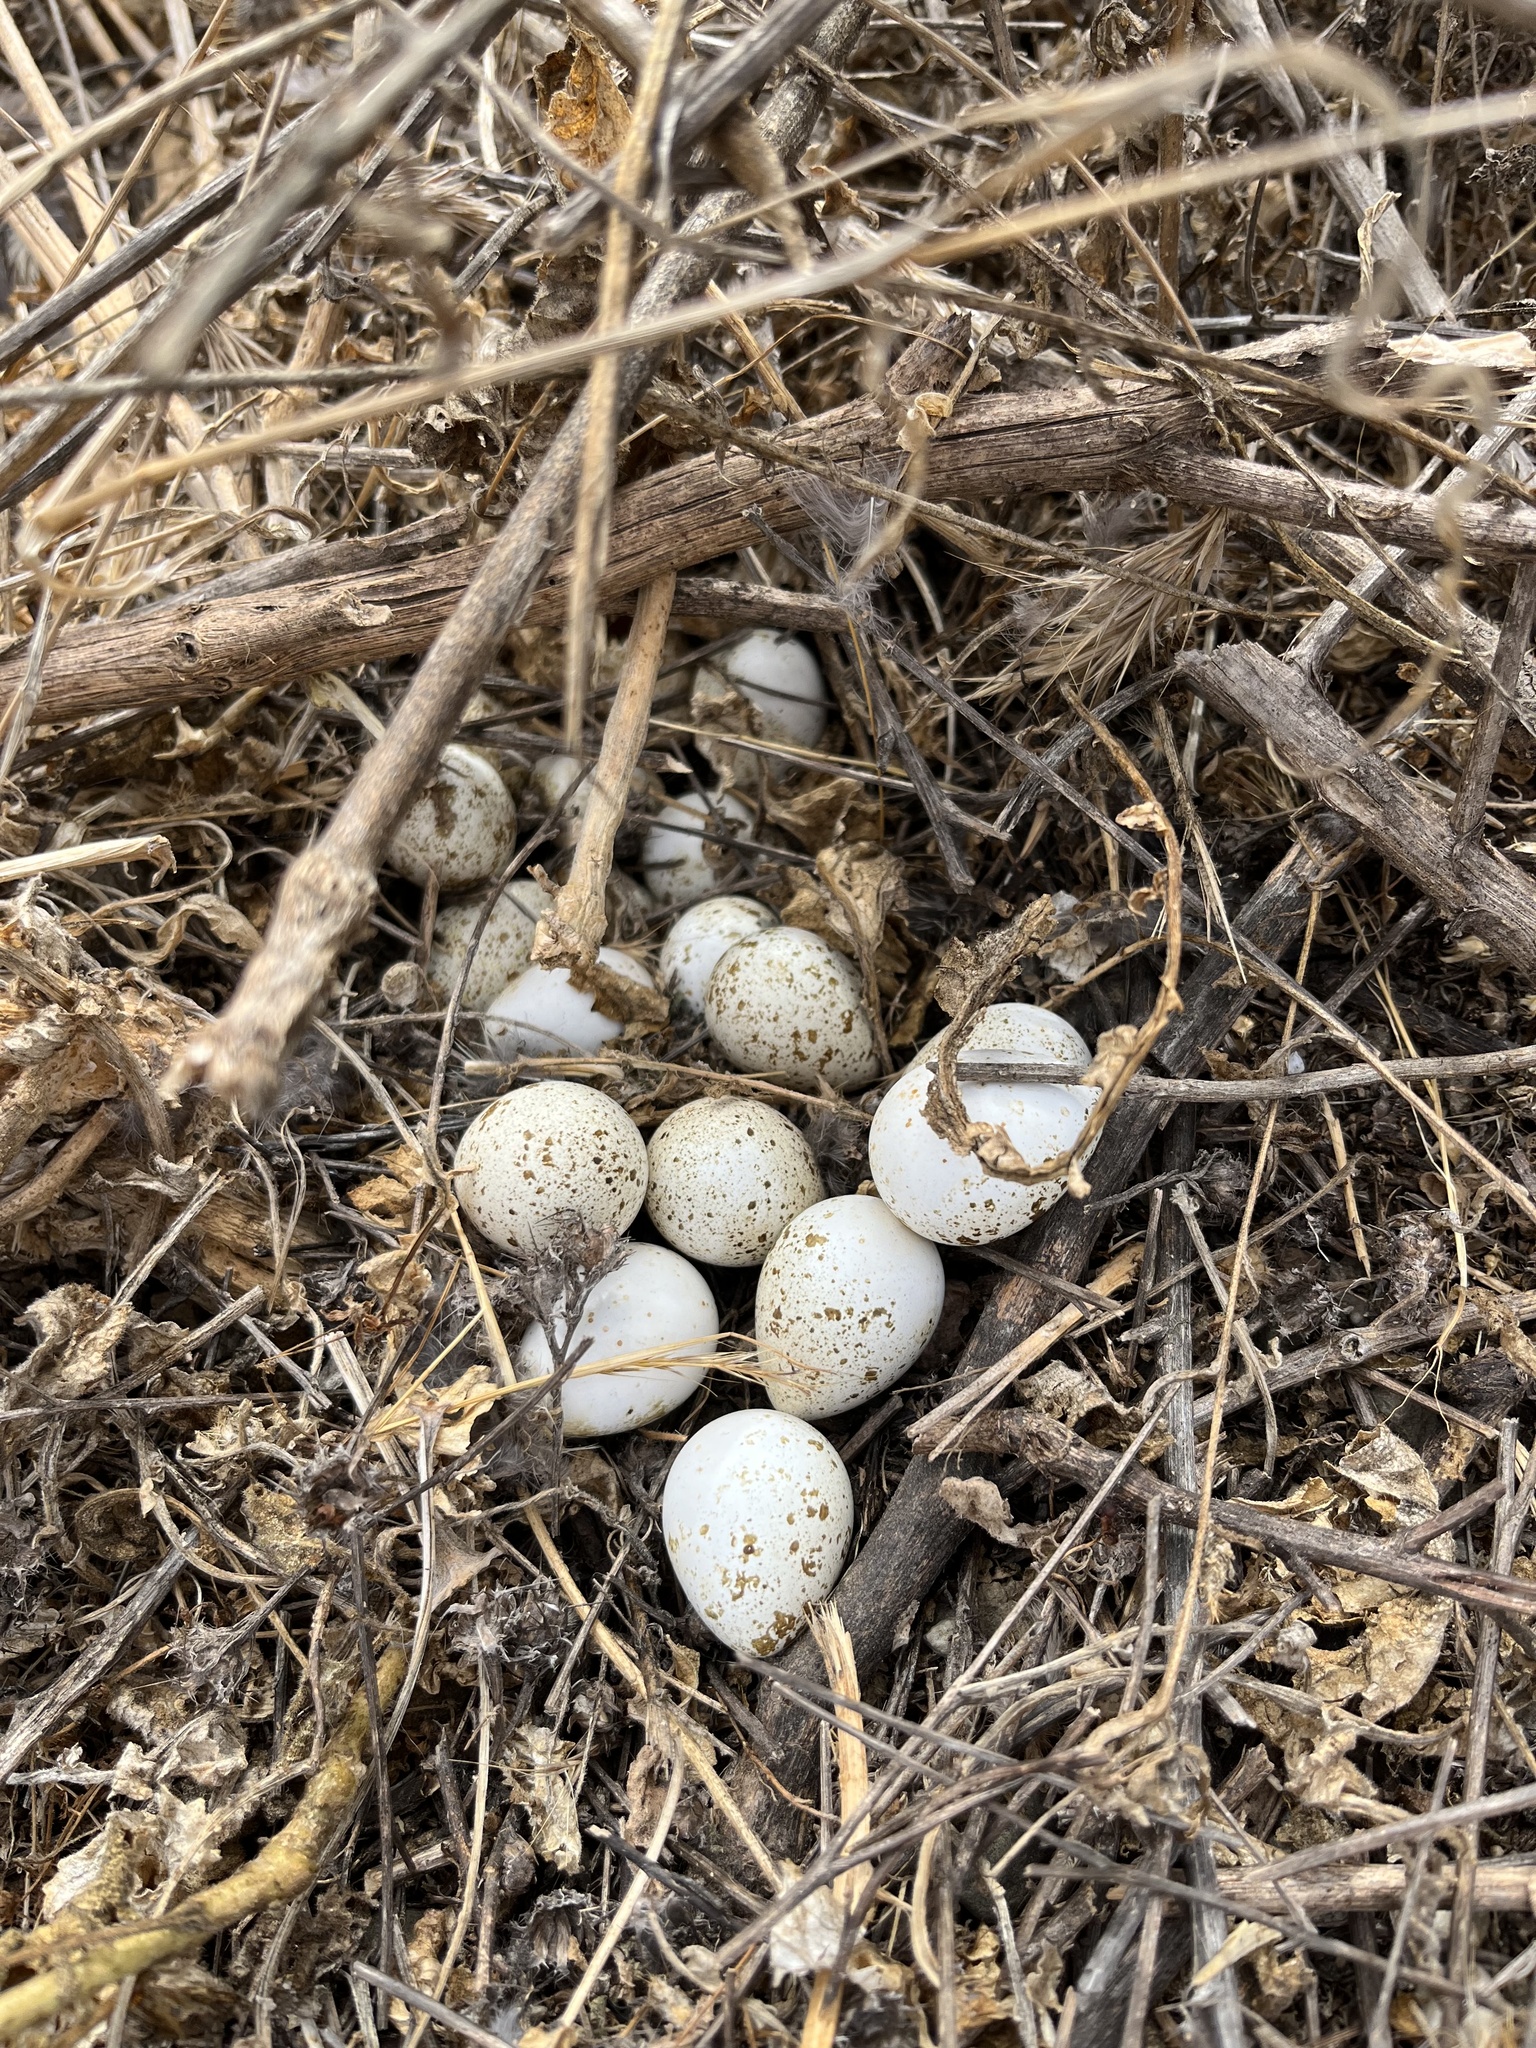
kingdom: Animalia
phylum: Chordata
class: Aves
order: Galliformes
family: Odontophoridae
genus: Callipepla
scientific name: Callipepla californica
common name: California quail
